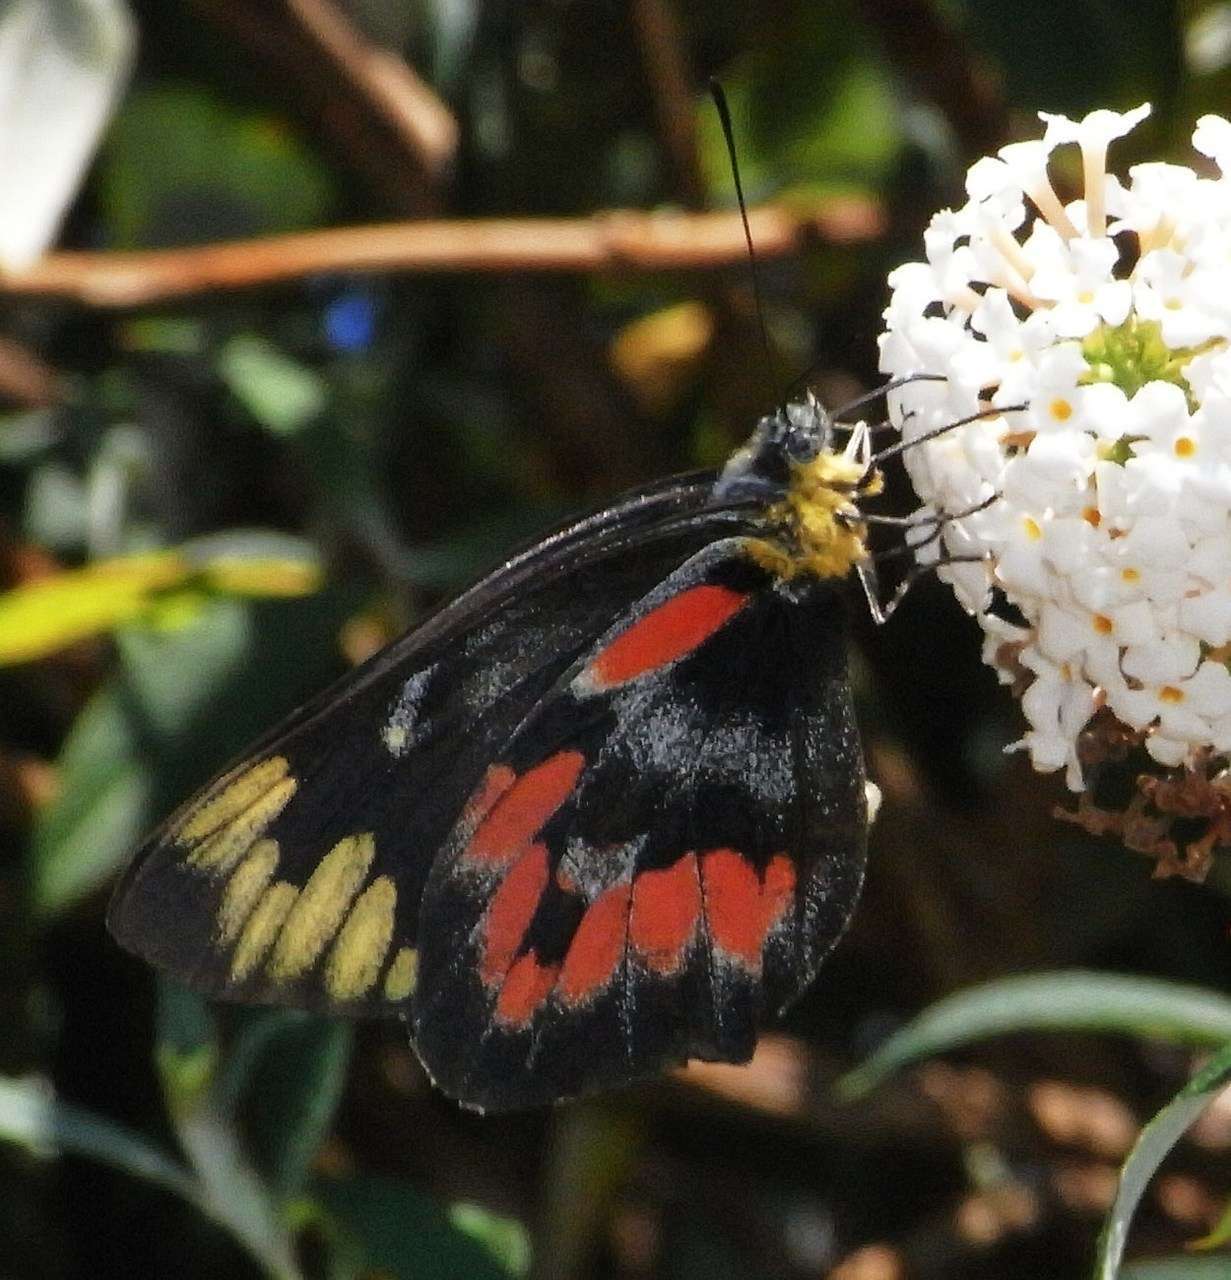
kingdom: Animalia
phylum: Arthropoda
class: Insecta
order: Lepidoptera
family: Pieridae
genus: Delias
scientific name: Delias harpalyce
